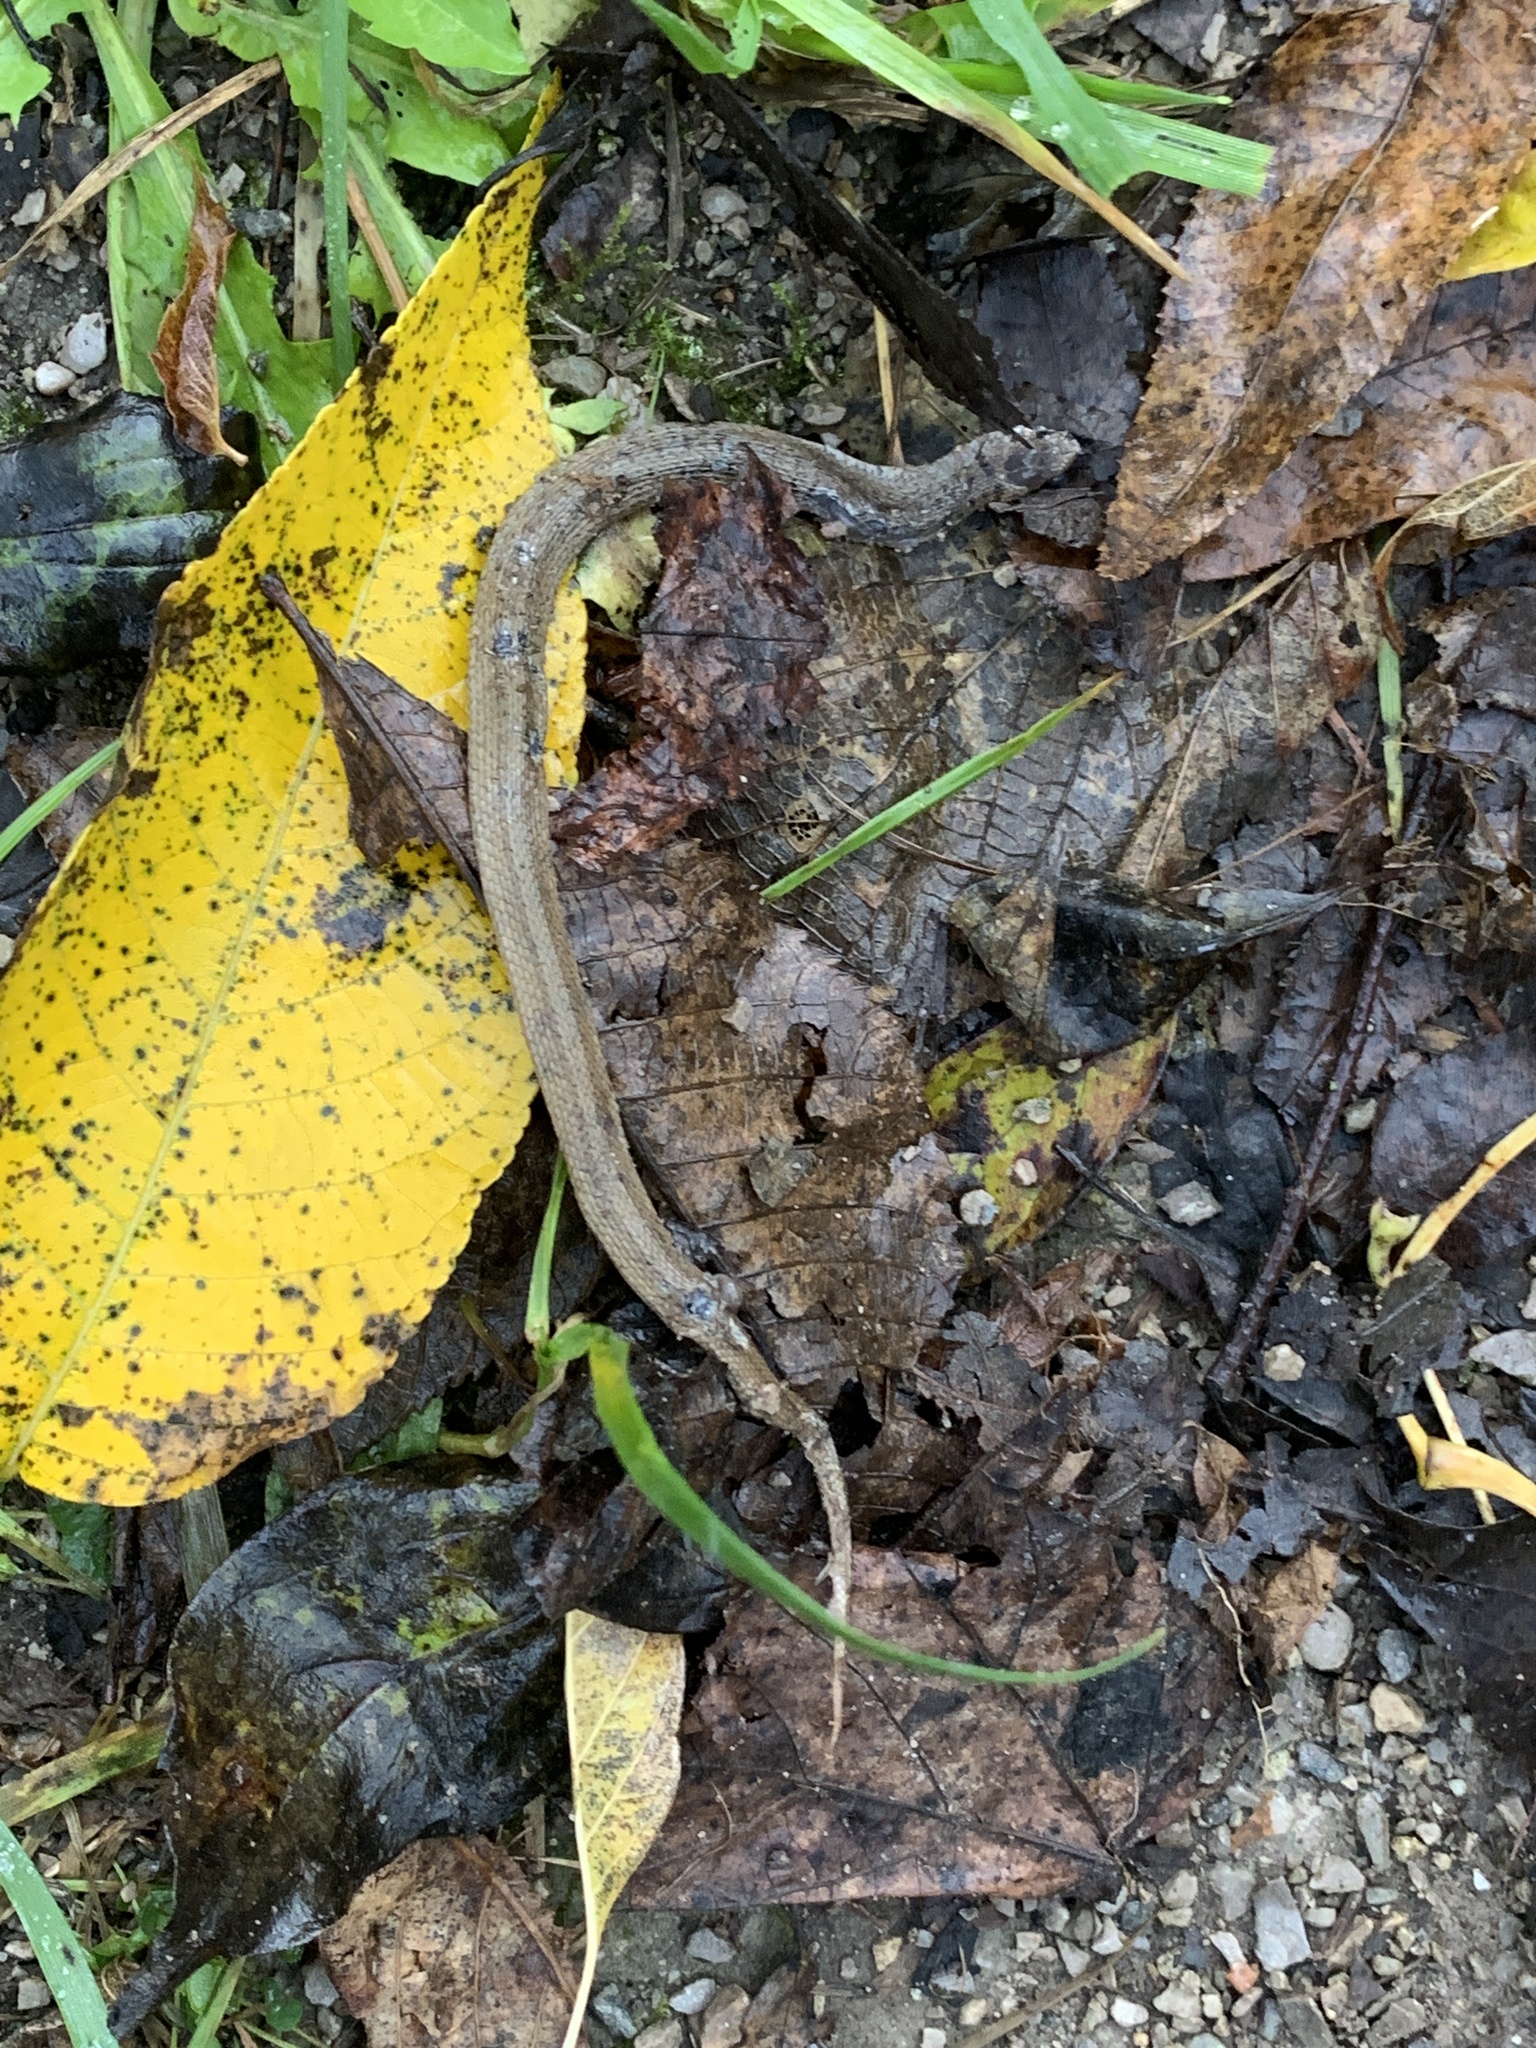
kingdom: Animalia
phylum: Chordata
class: Squamata
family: Colubridae
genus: Storeria
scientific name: Storeria dekayi
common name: (dekay’s) brown snake
